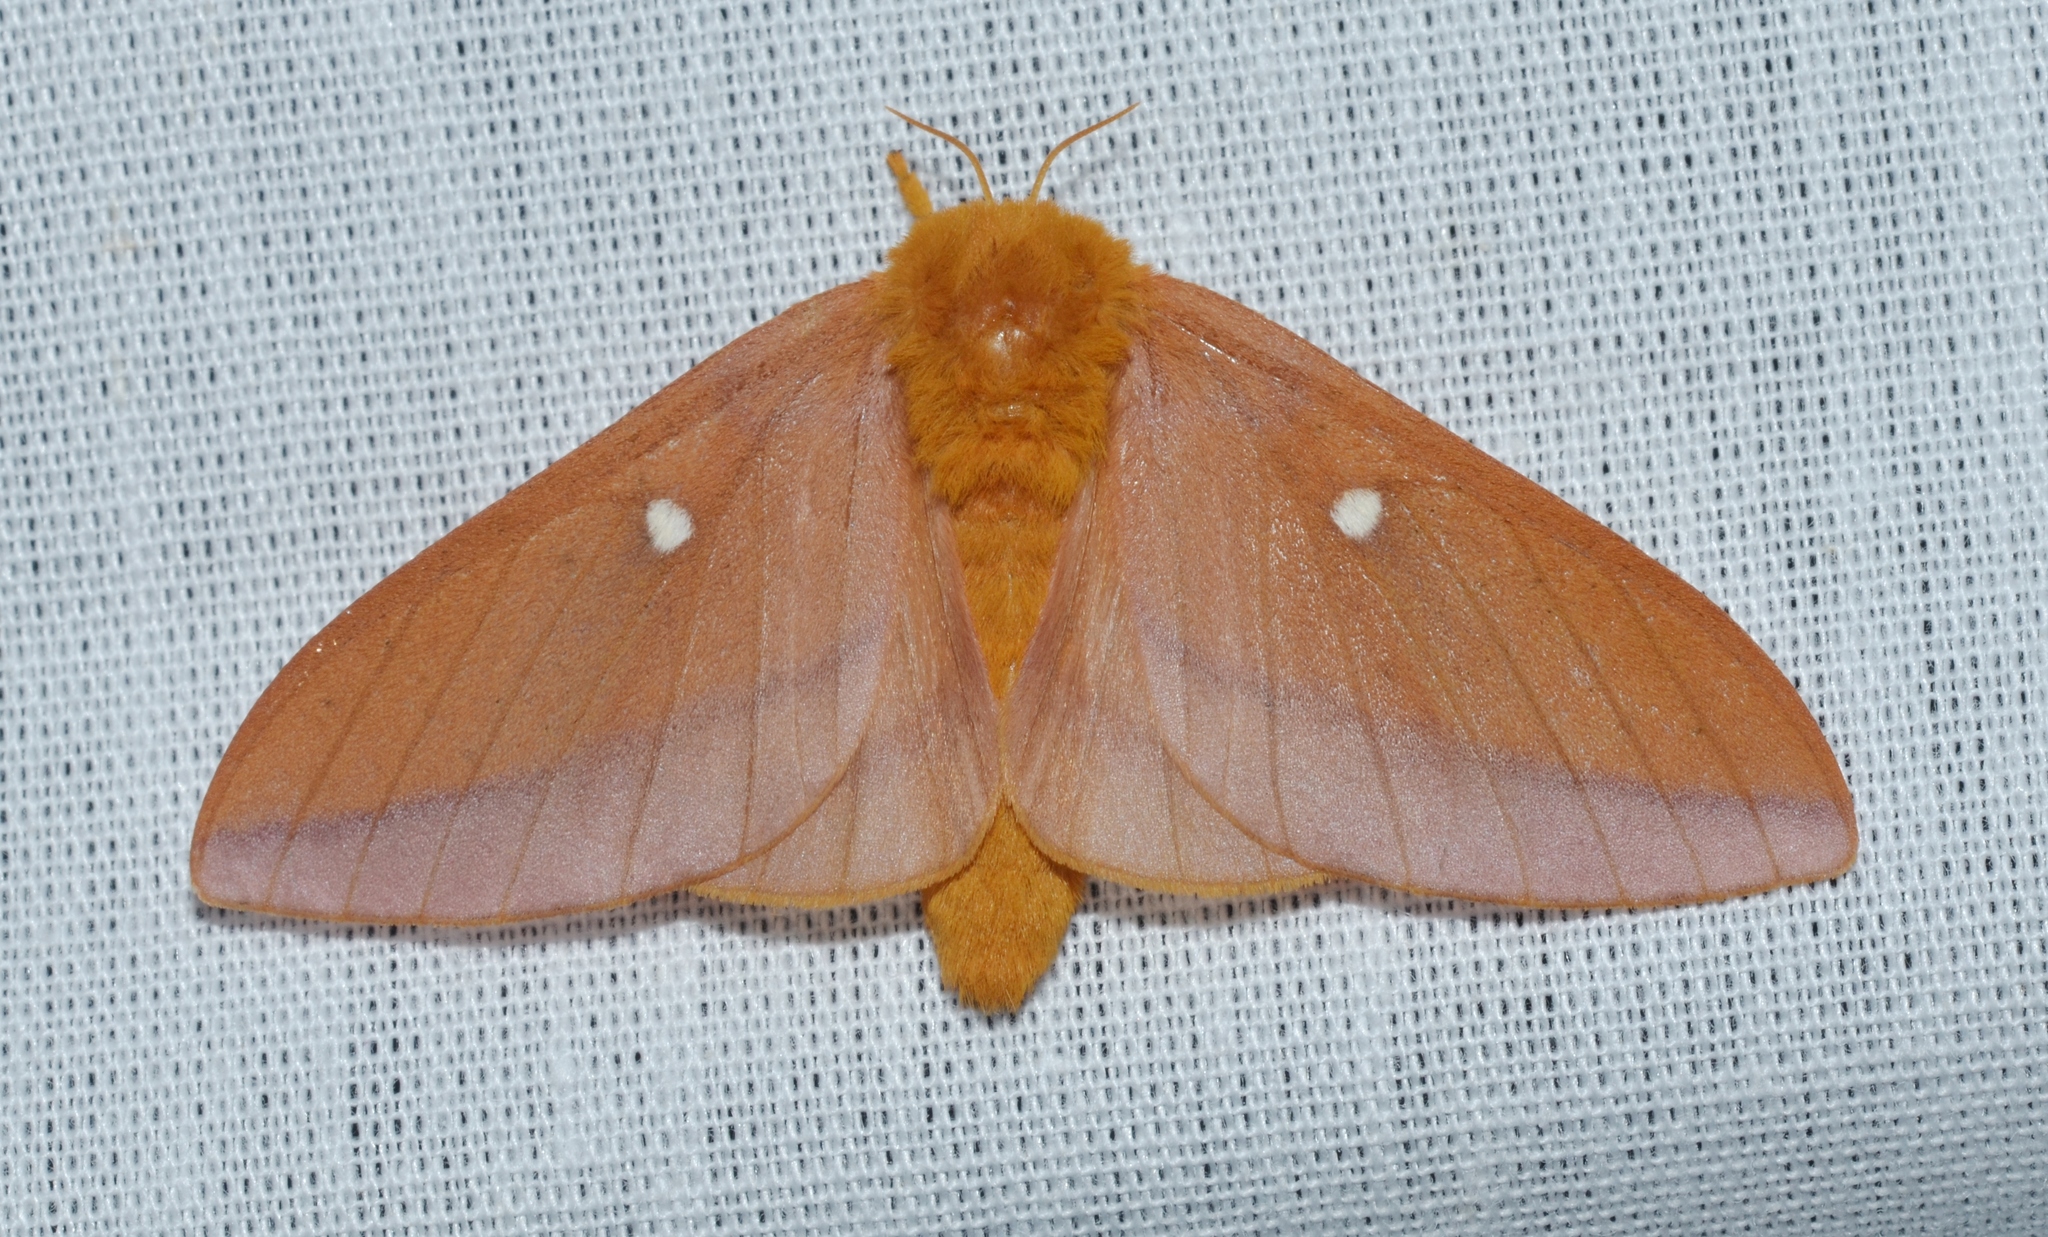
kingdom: Animalia
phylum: Arthropoda
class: Insecta
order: Lepidoptera
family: Saturniidae
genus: Anisota
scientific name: Anisota virginiensis
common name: Pink striped oakworm moth
